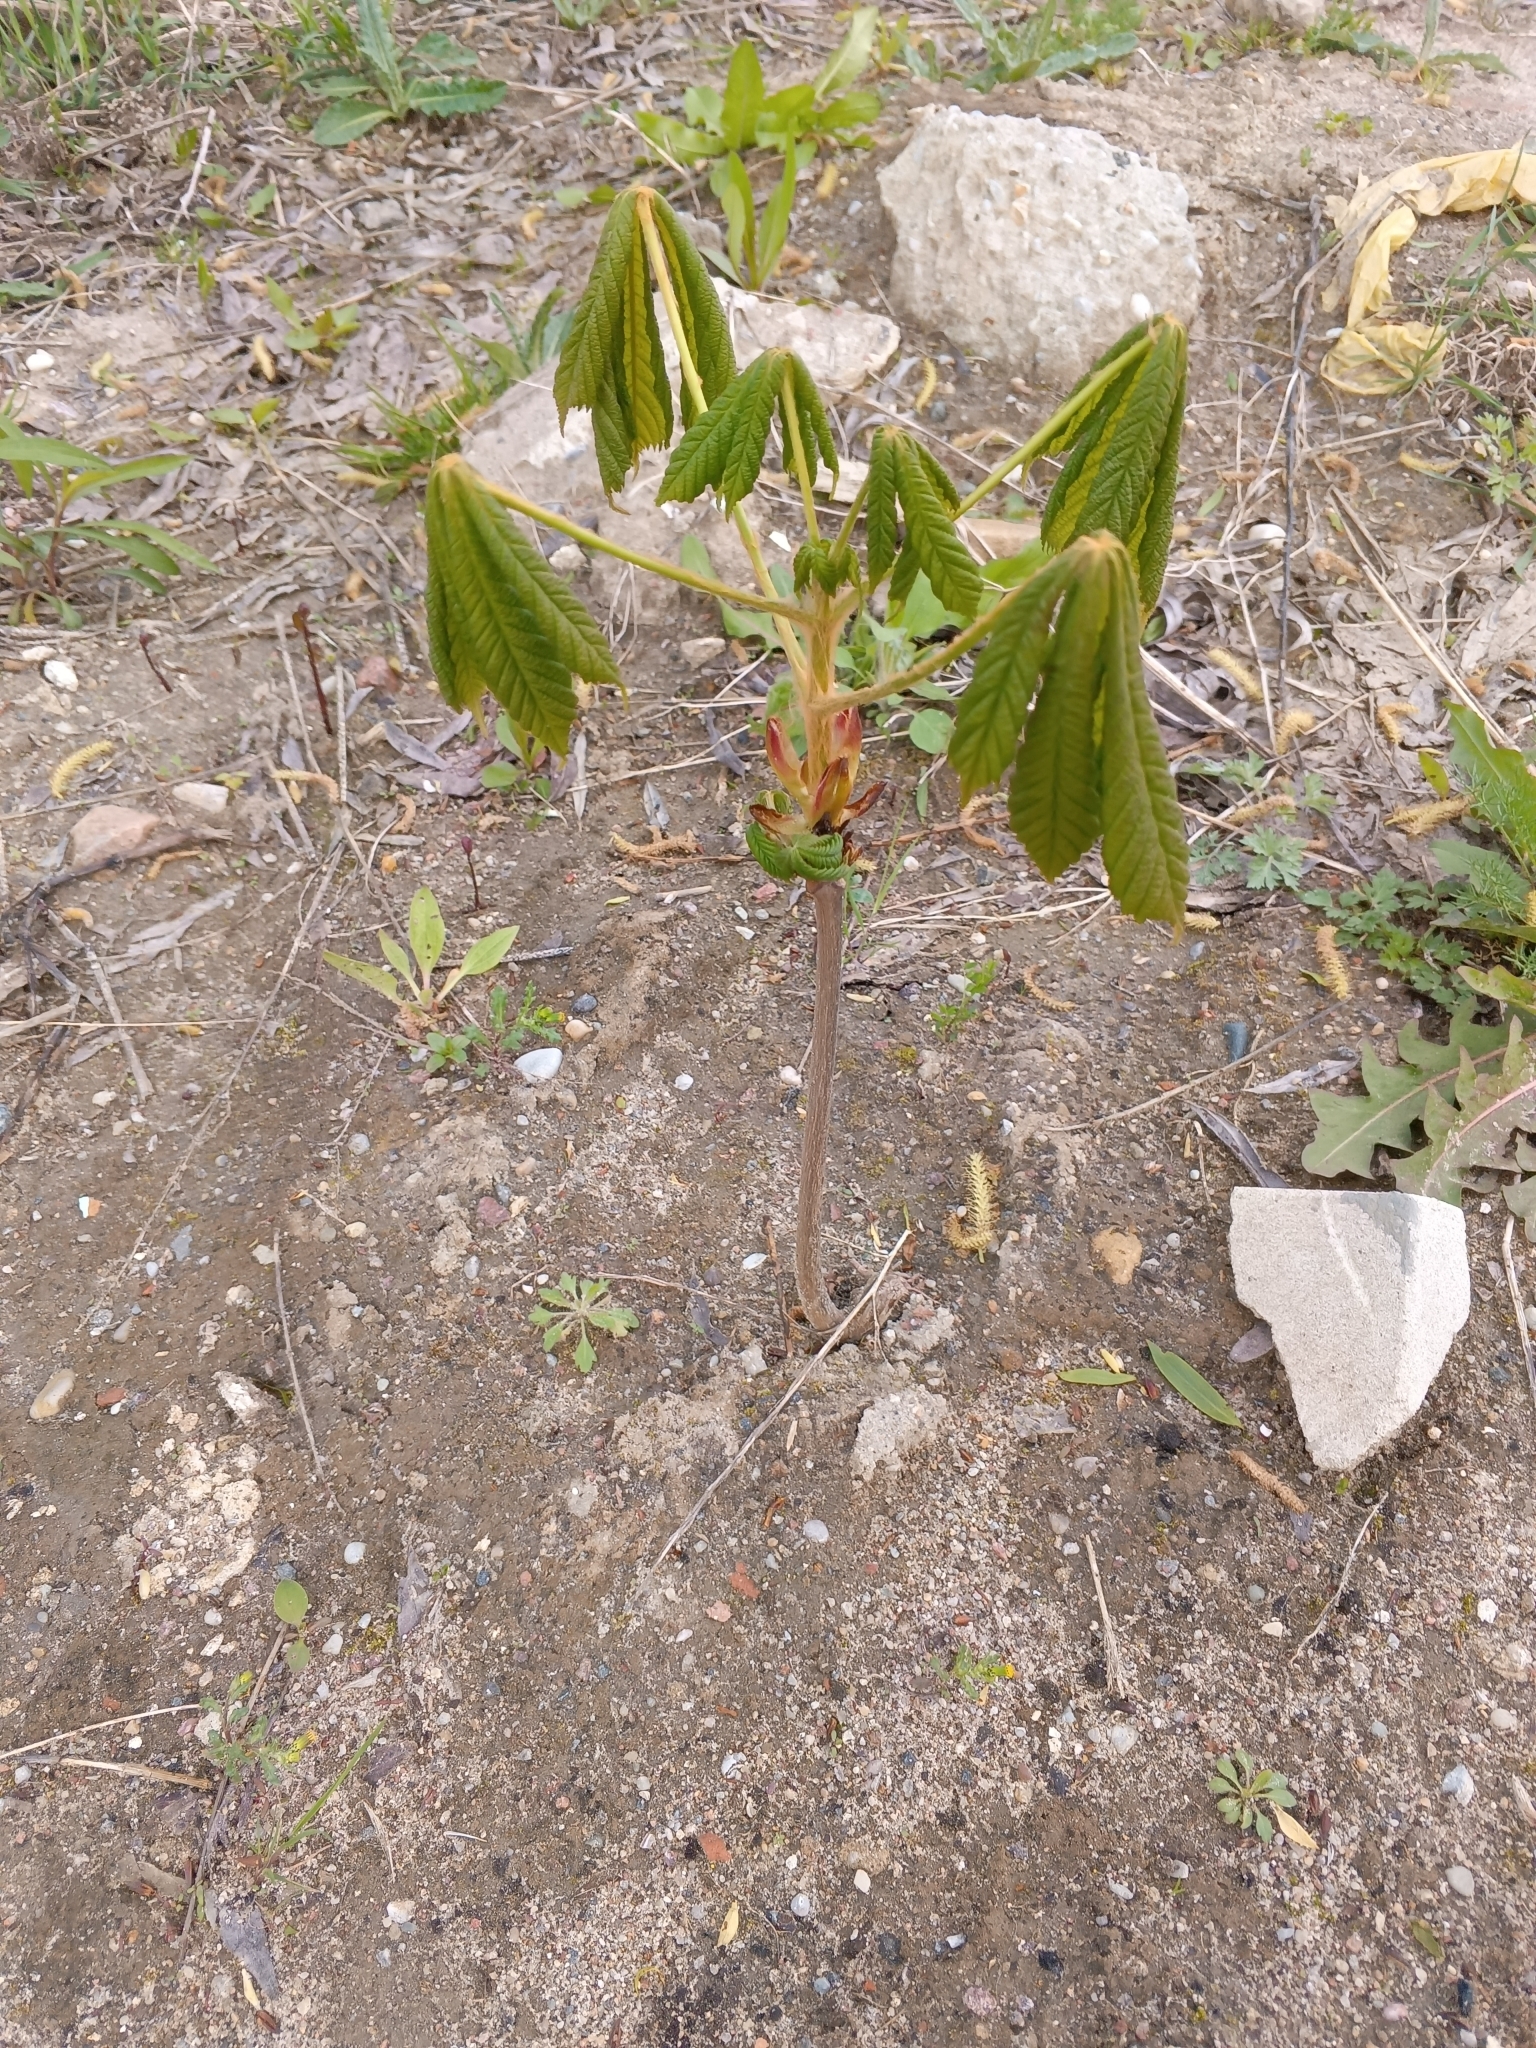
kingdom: Plantae
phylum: Tracheophyta
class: Magnoliopsida
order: Sapindales
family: Sapindaceae
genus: Aesculus
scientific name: Aesculus hippocastanum
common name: Horse-chestnut
